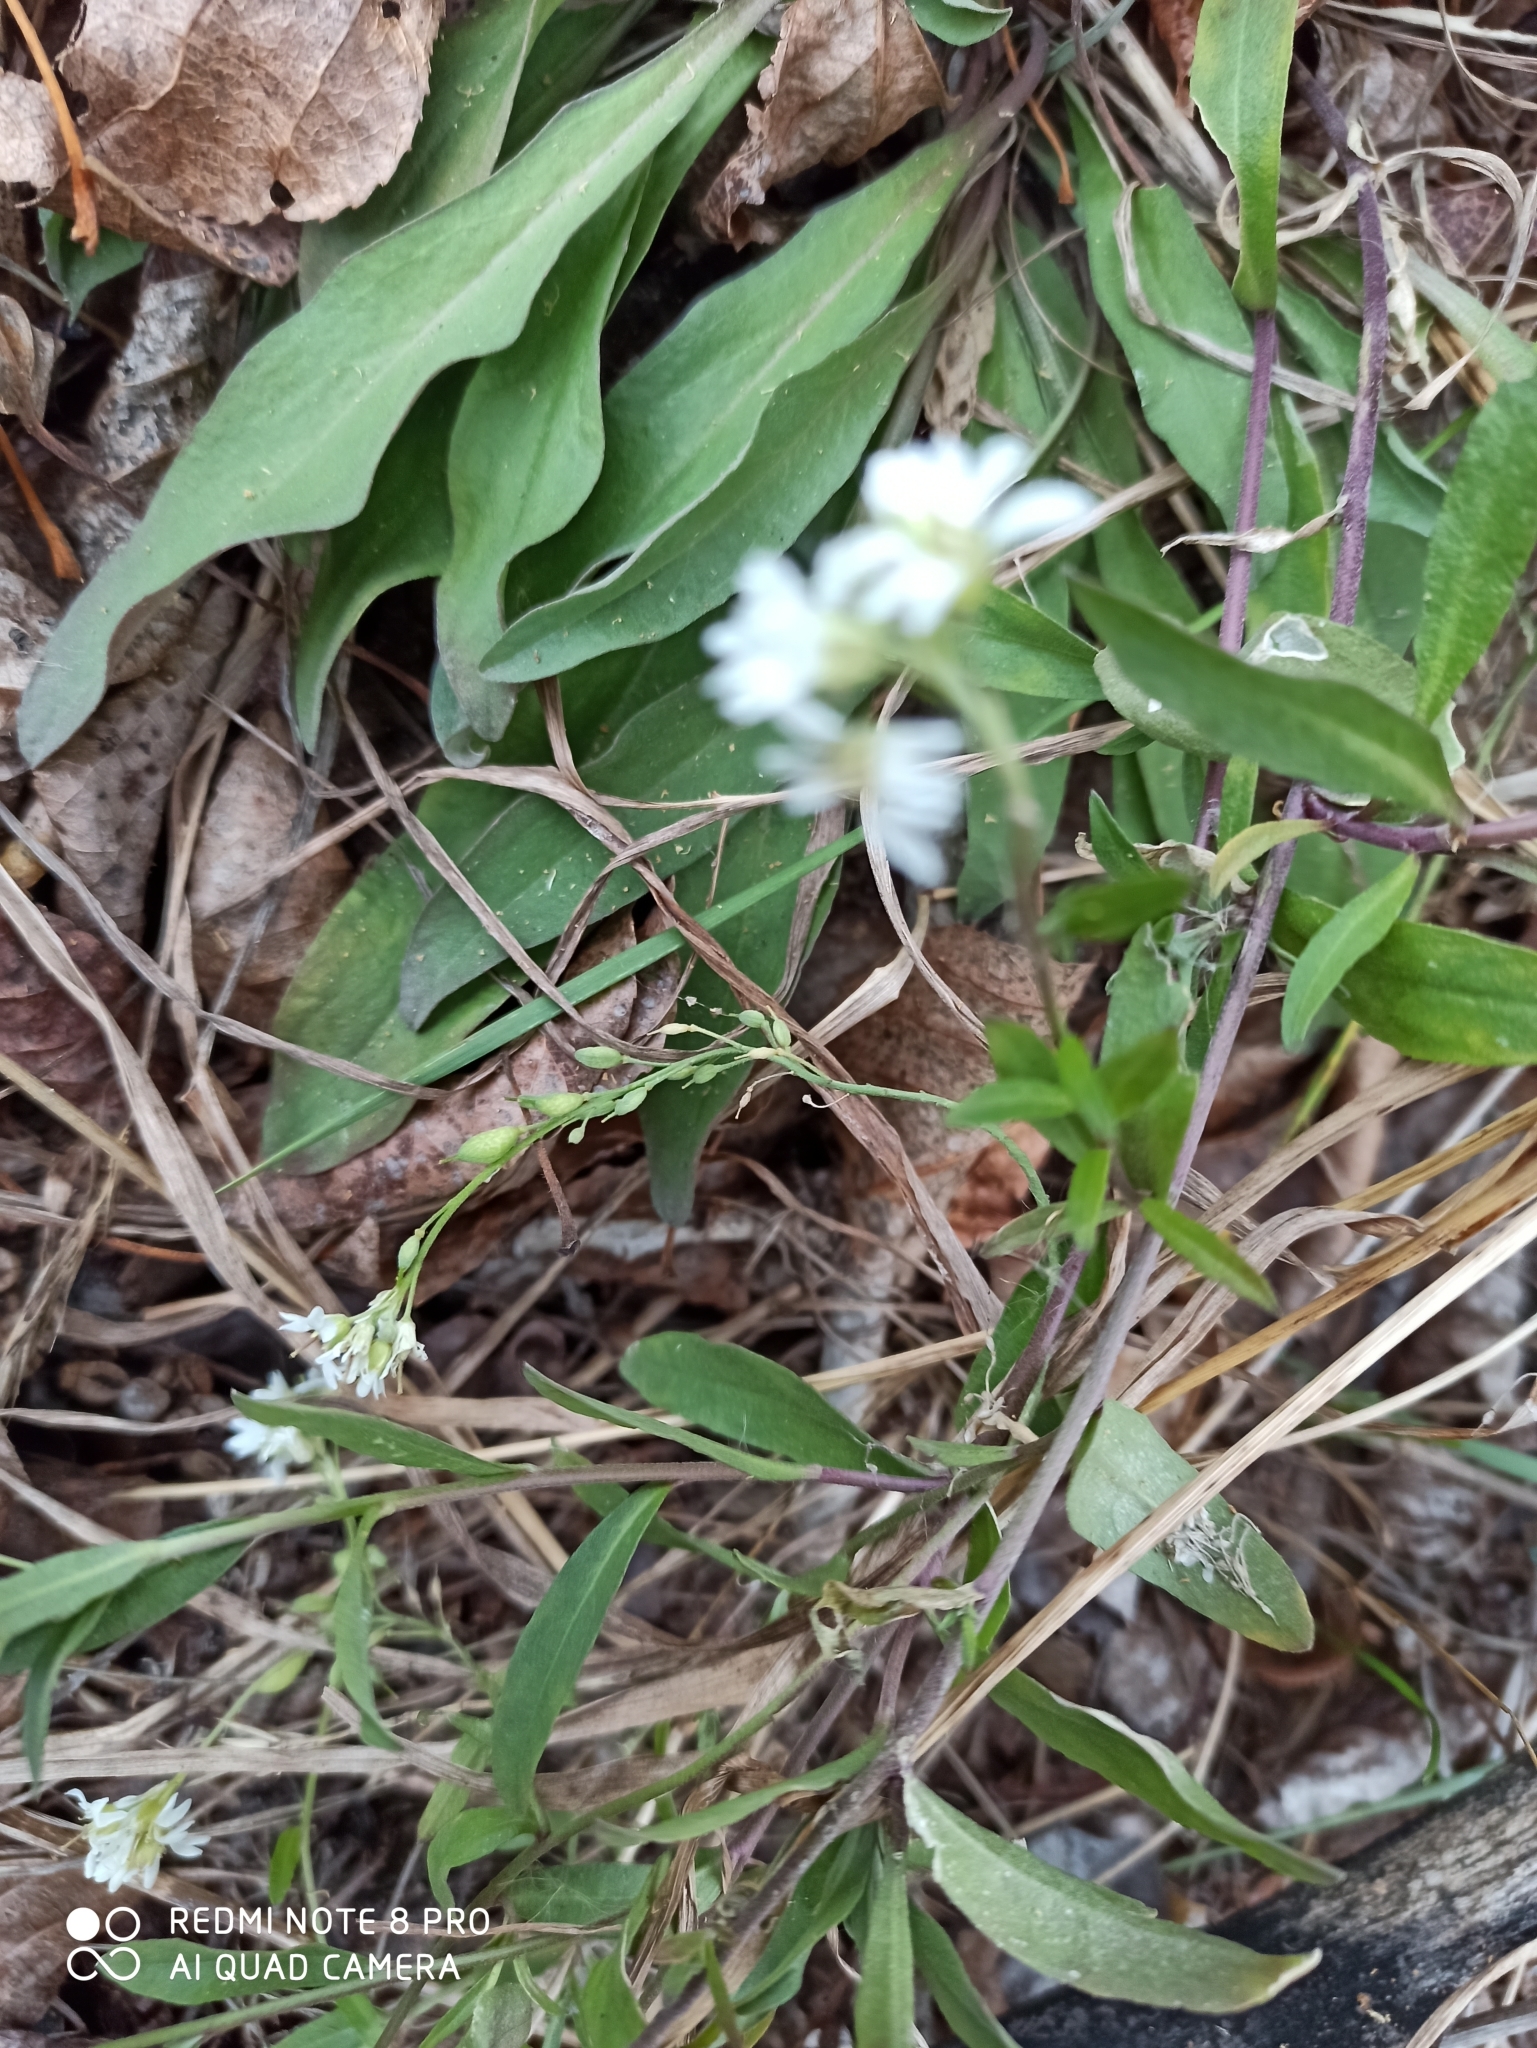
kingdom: Plantae
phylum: Tracheophyta
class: Magnoliopsida
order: Brassicales
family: Brassicaceae
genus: Berteroa
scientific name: Berteroa incana
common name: Hoary alison
